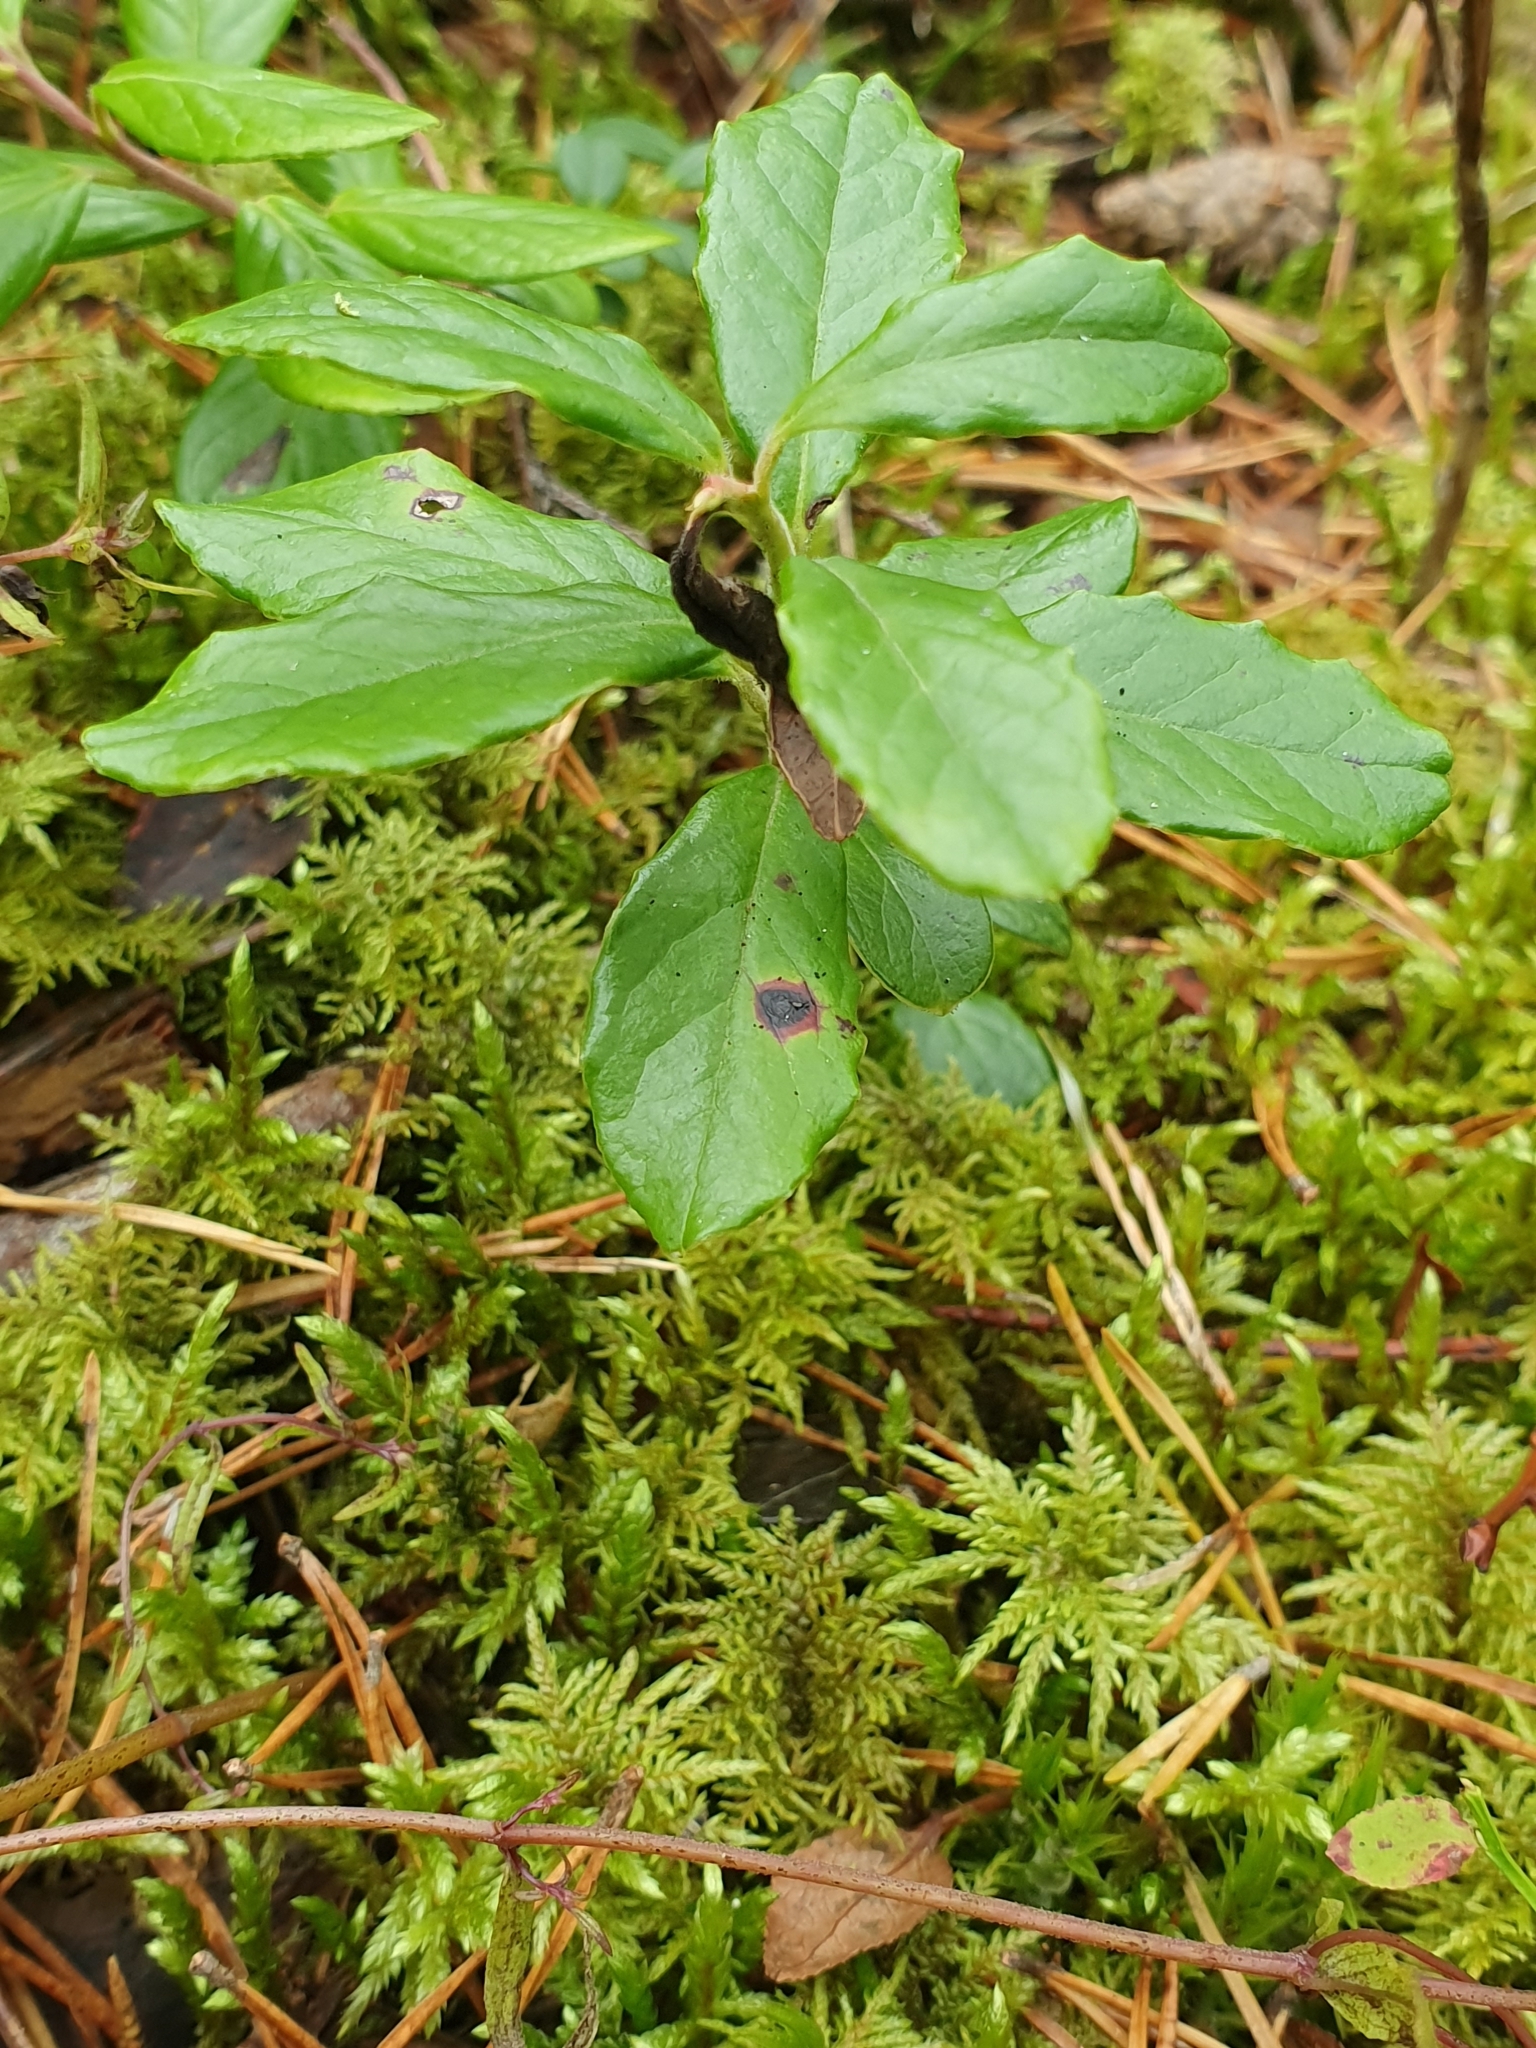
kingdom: Plantae
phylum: Tracheophyta
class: Magnoliopsida
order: Ericales
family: Ericaceae
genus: Vaccinium
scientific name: Vaccinium vitis-idaea
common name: Cowberry
